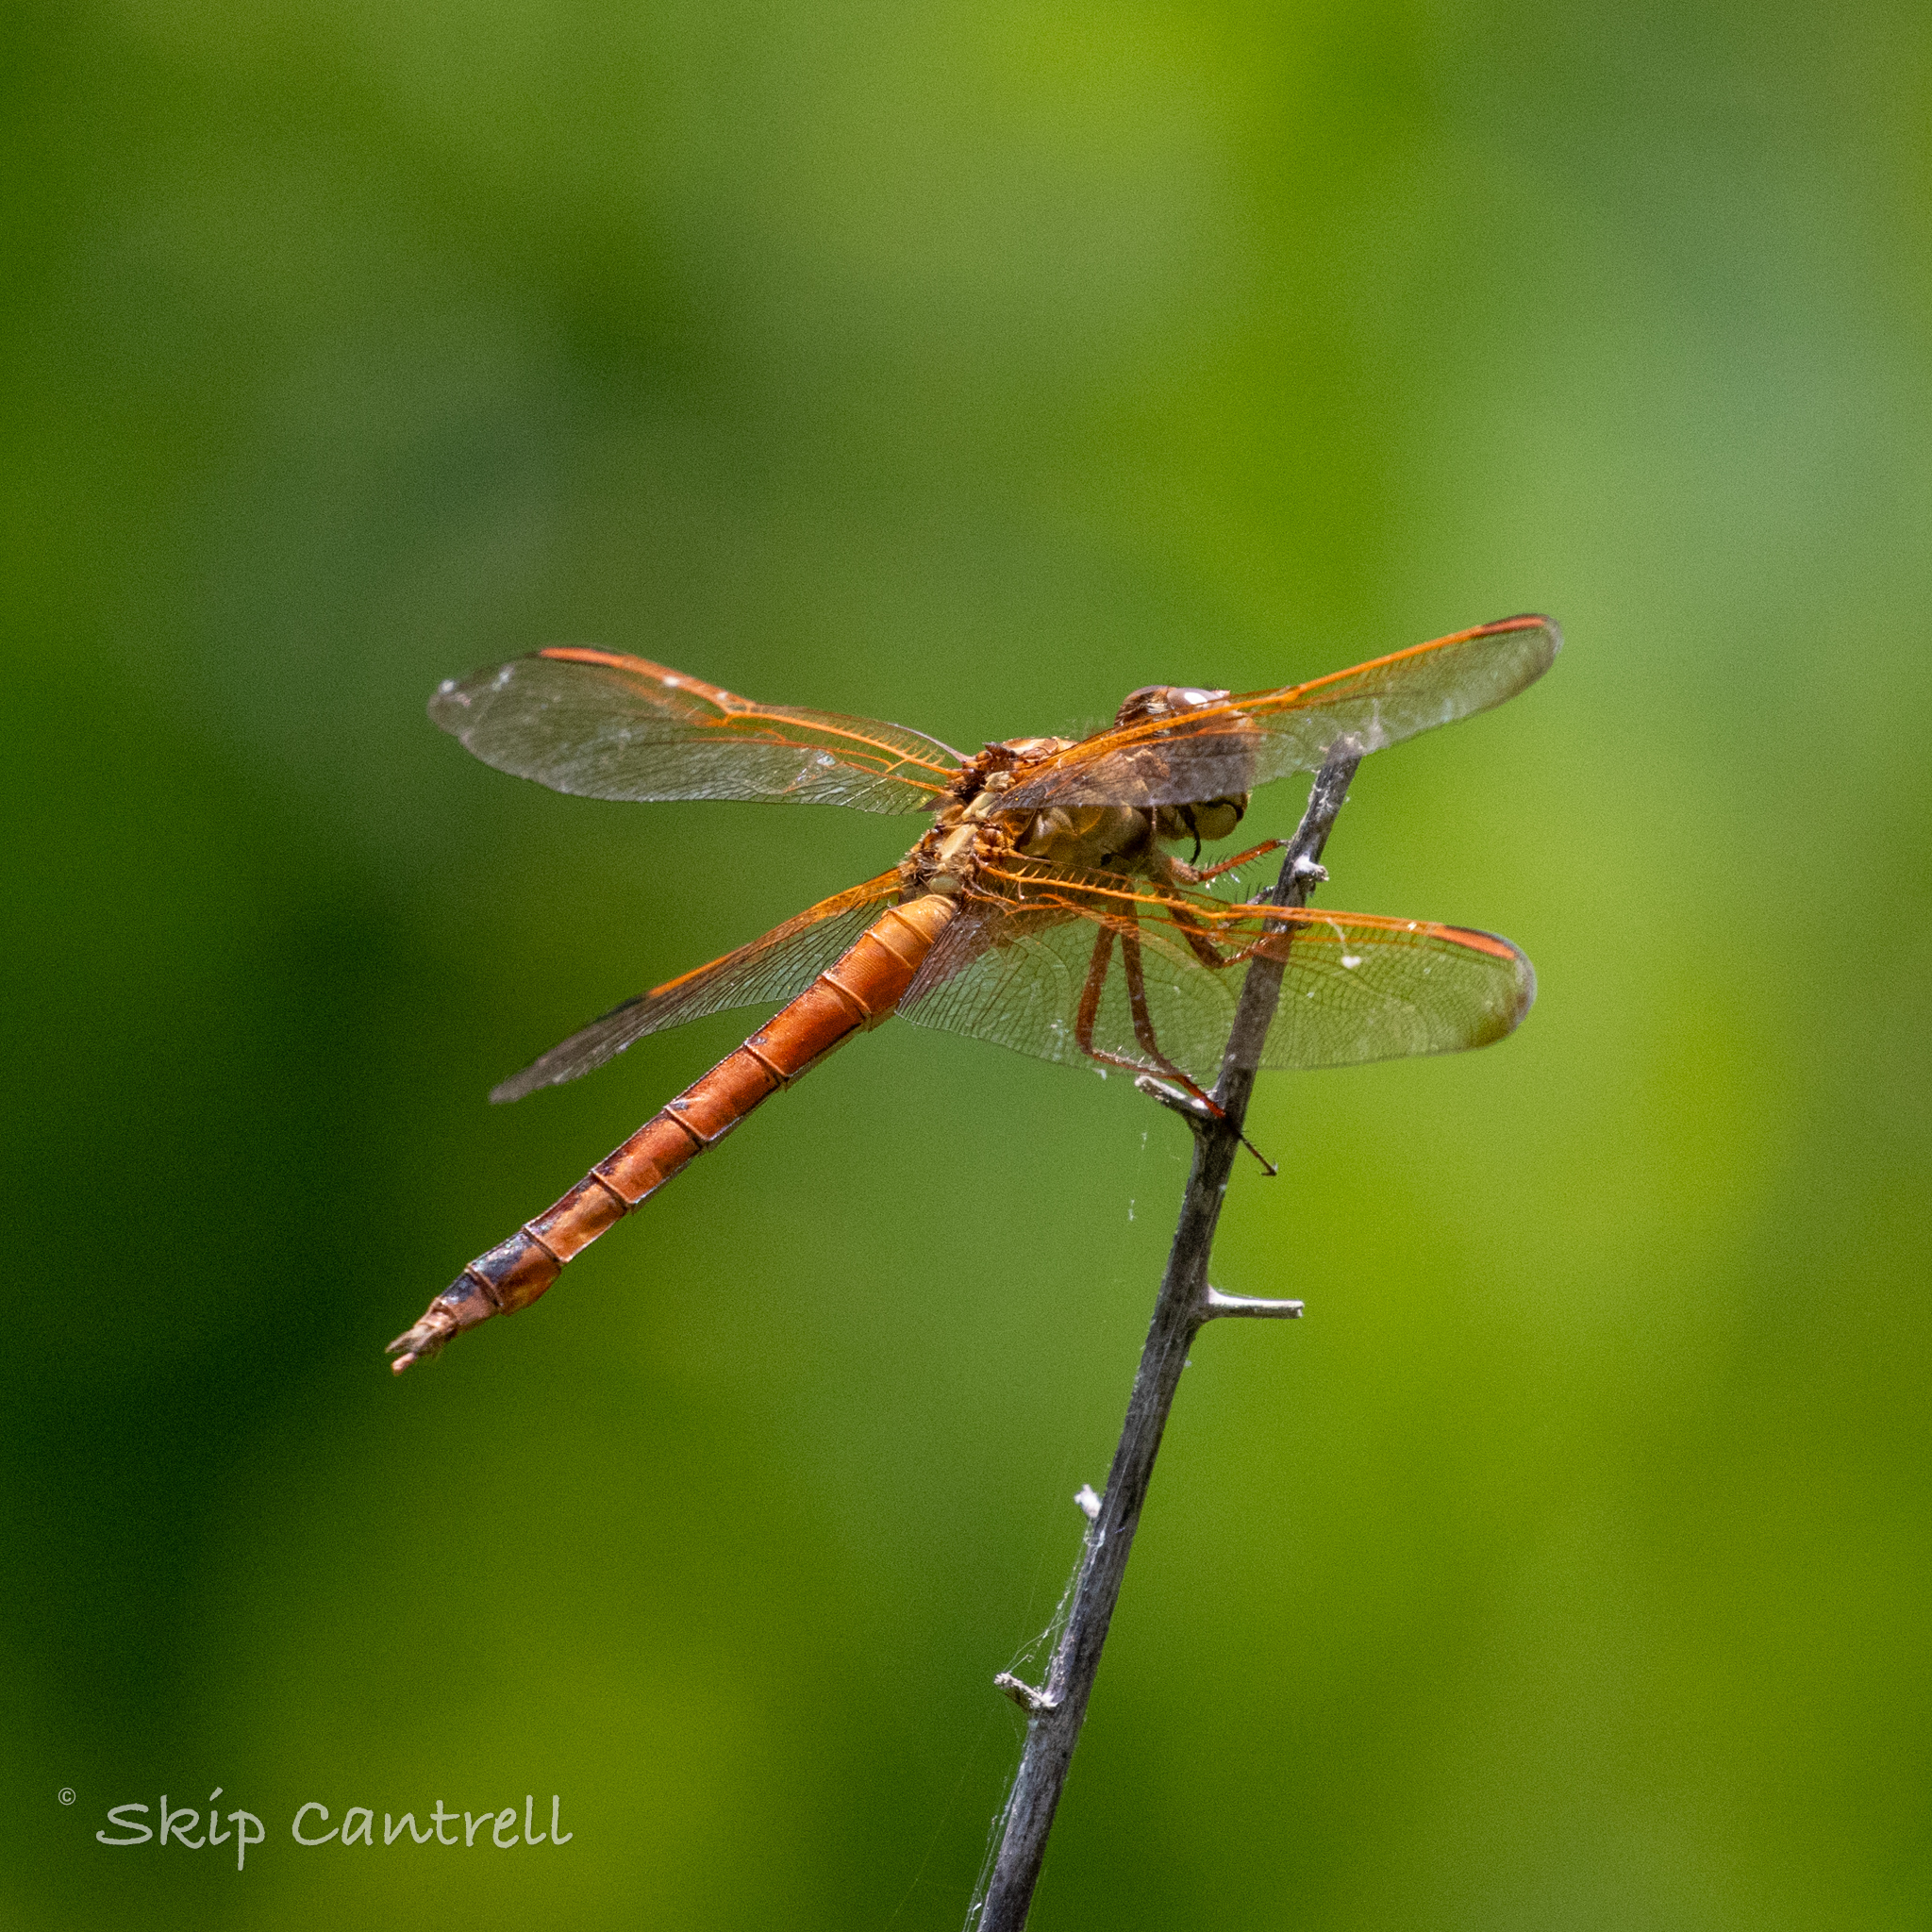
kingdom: Animalia
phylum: Arthropoda
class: Insecta
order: Odonata
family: Libellulidae
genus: Libellula
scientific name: Libellula needhami
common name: Needham's skimmer
